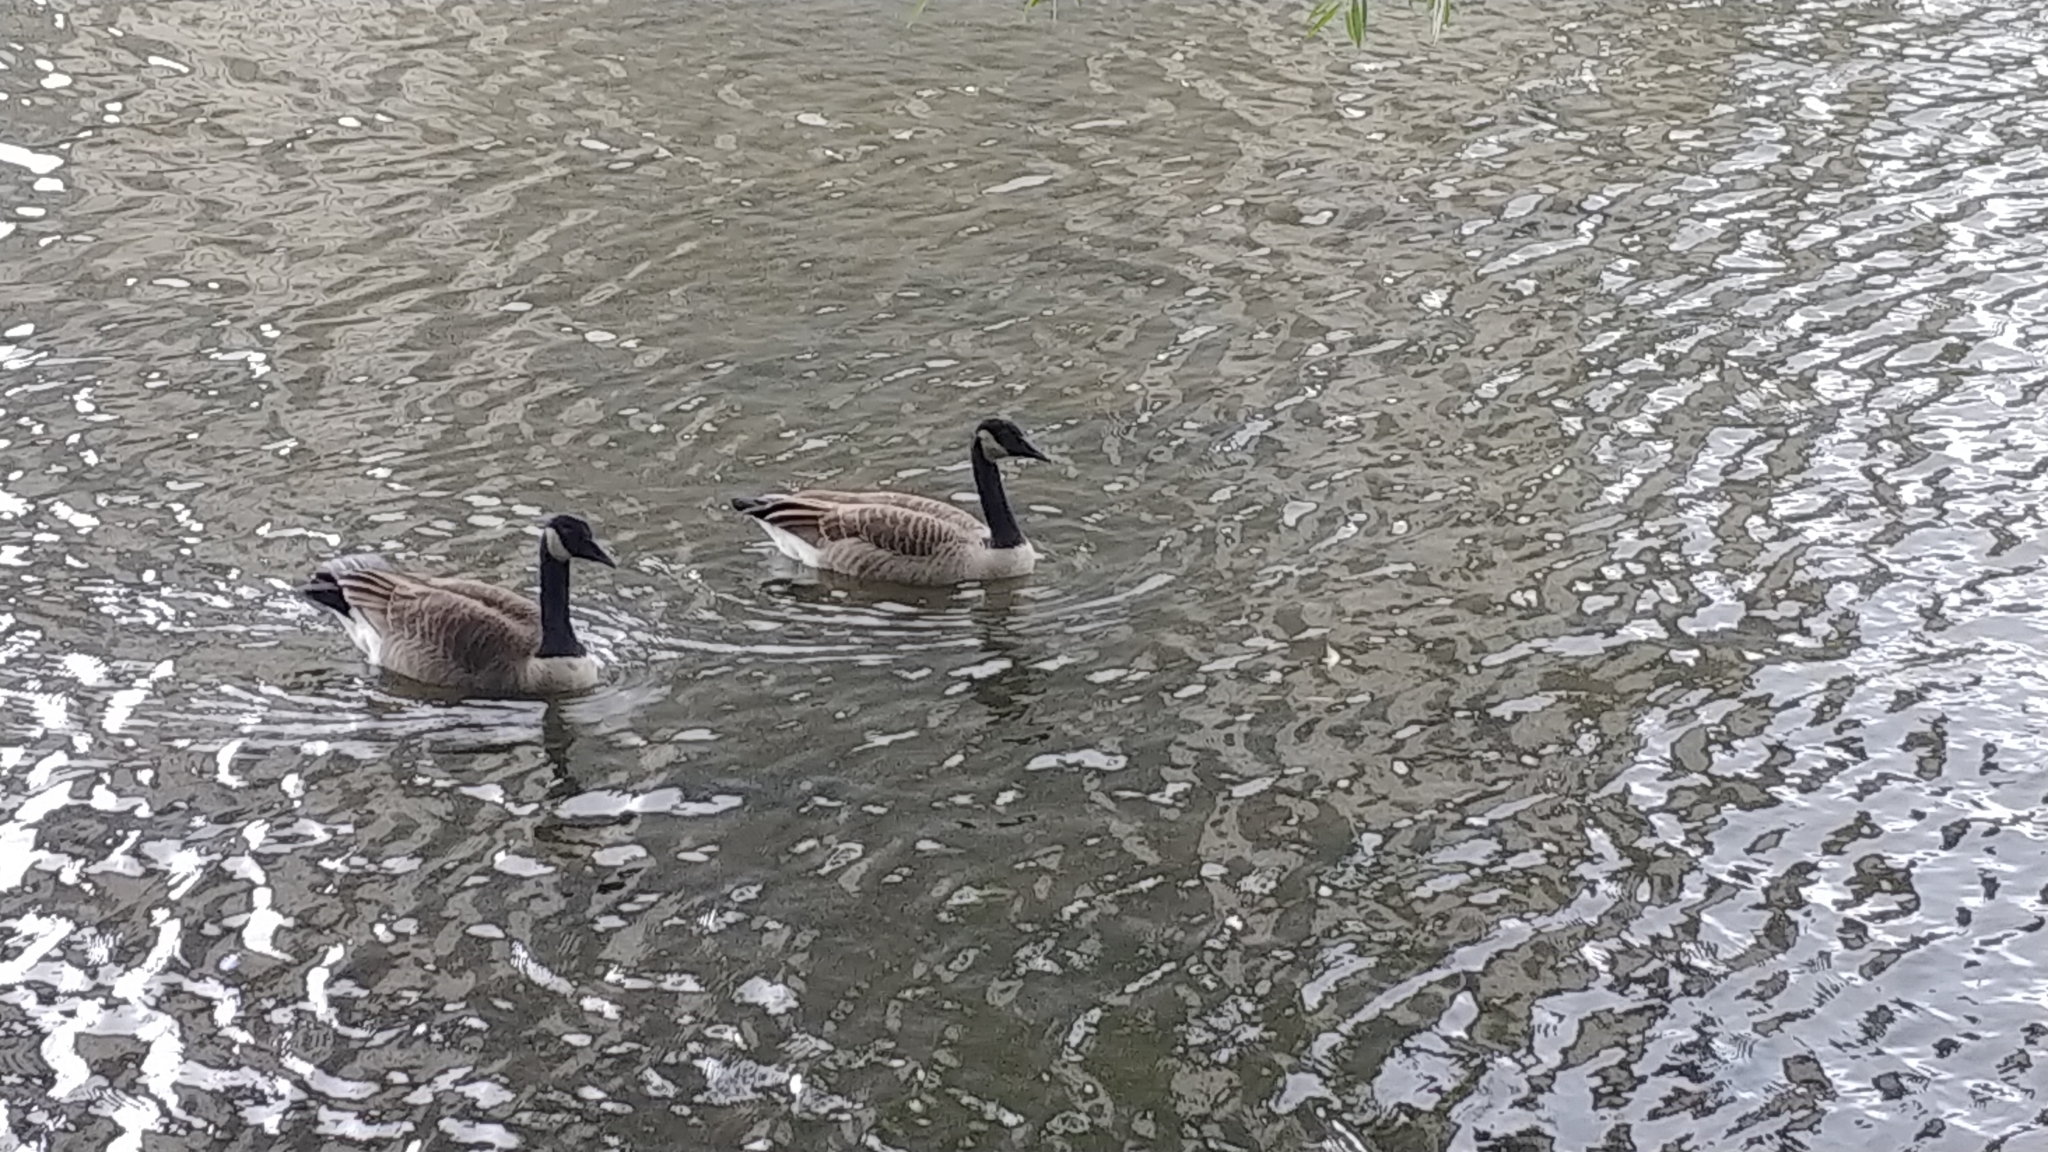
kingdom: Animalia
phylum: Chordata
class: Aves
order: Anseriformes
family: Anatidae
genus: Branta
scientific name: Branta canadensis
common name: Canada goose
